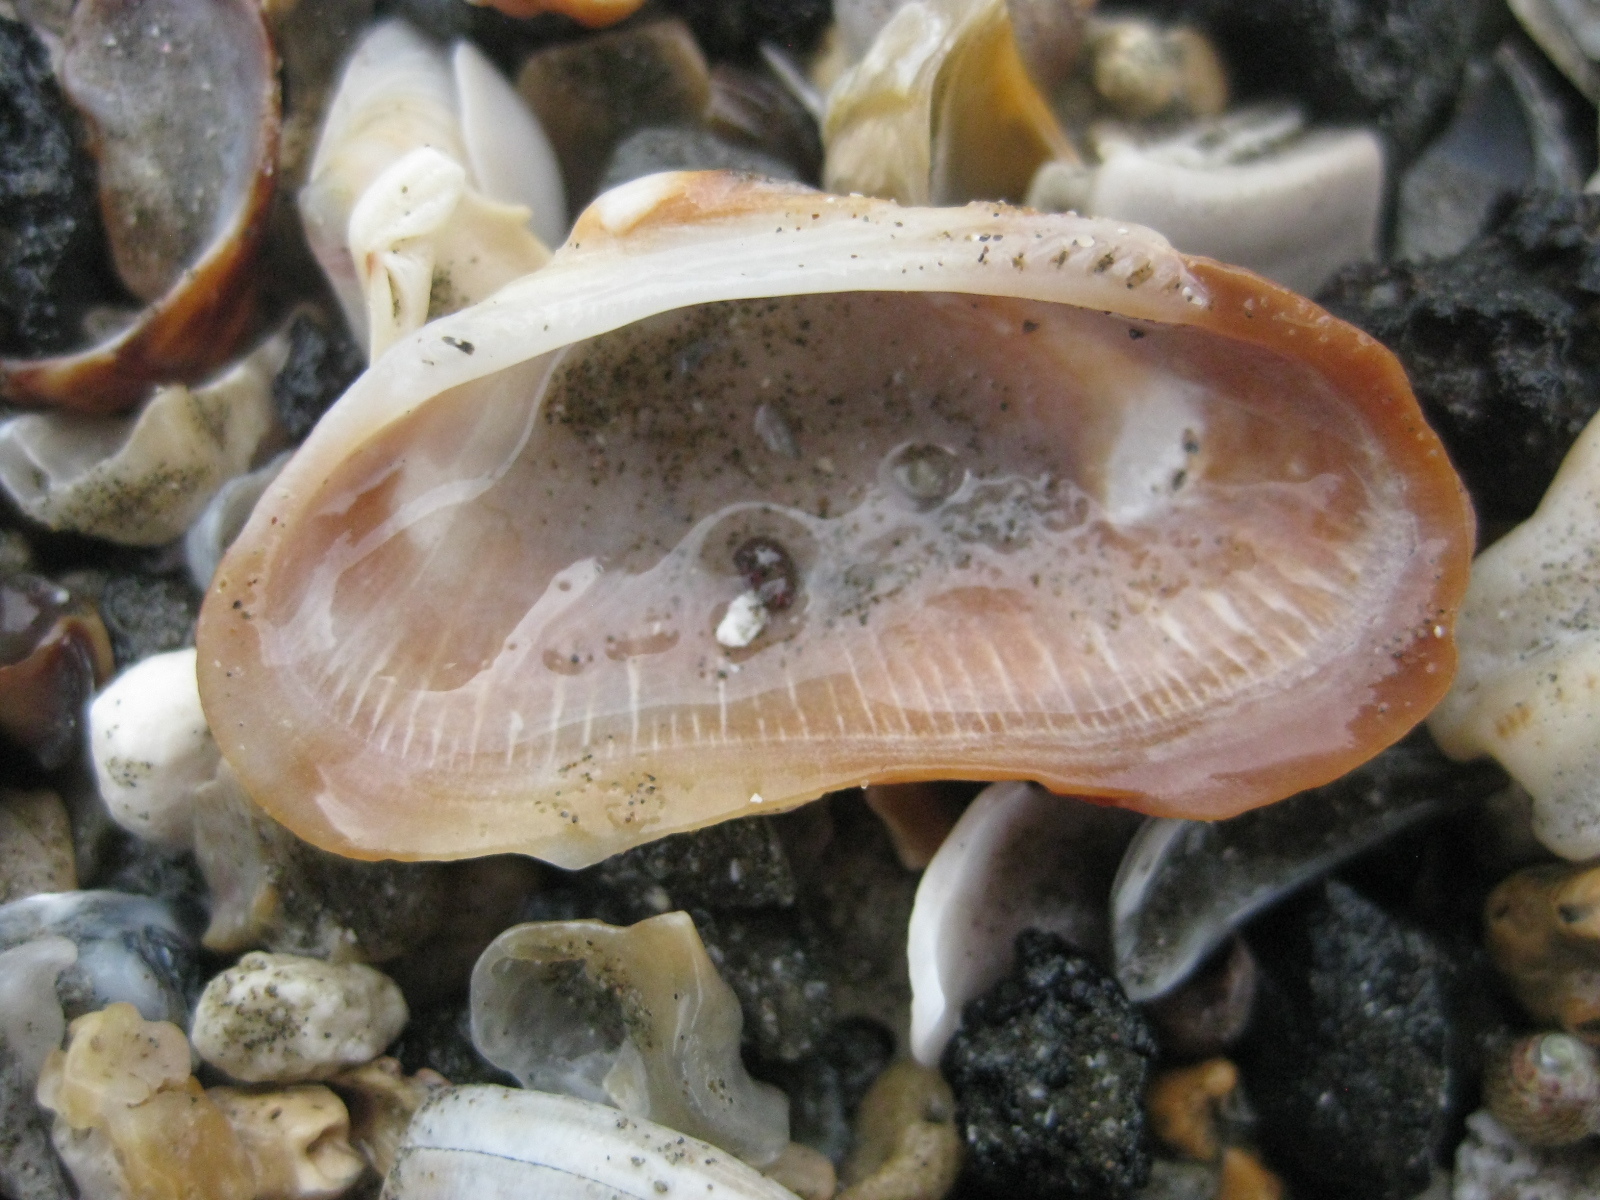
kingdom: Animalia
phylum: Mollusca
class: Bivalvia
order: Arcida
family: Arcidae
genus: Barbatia
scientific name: Barbatia novaezealandiae
